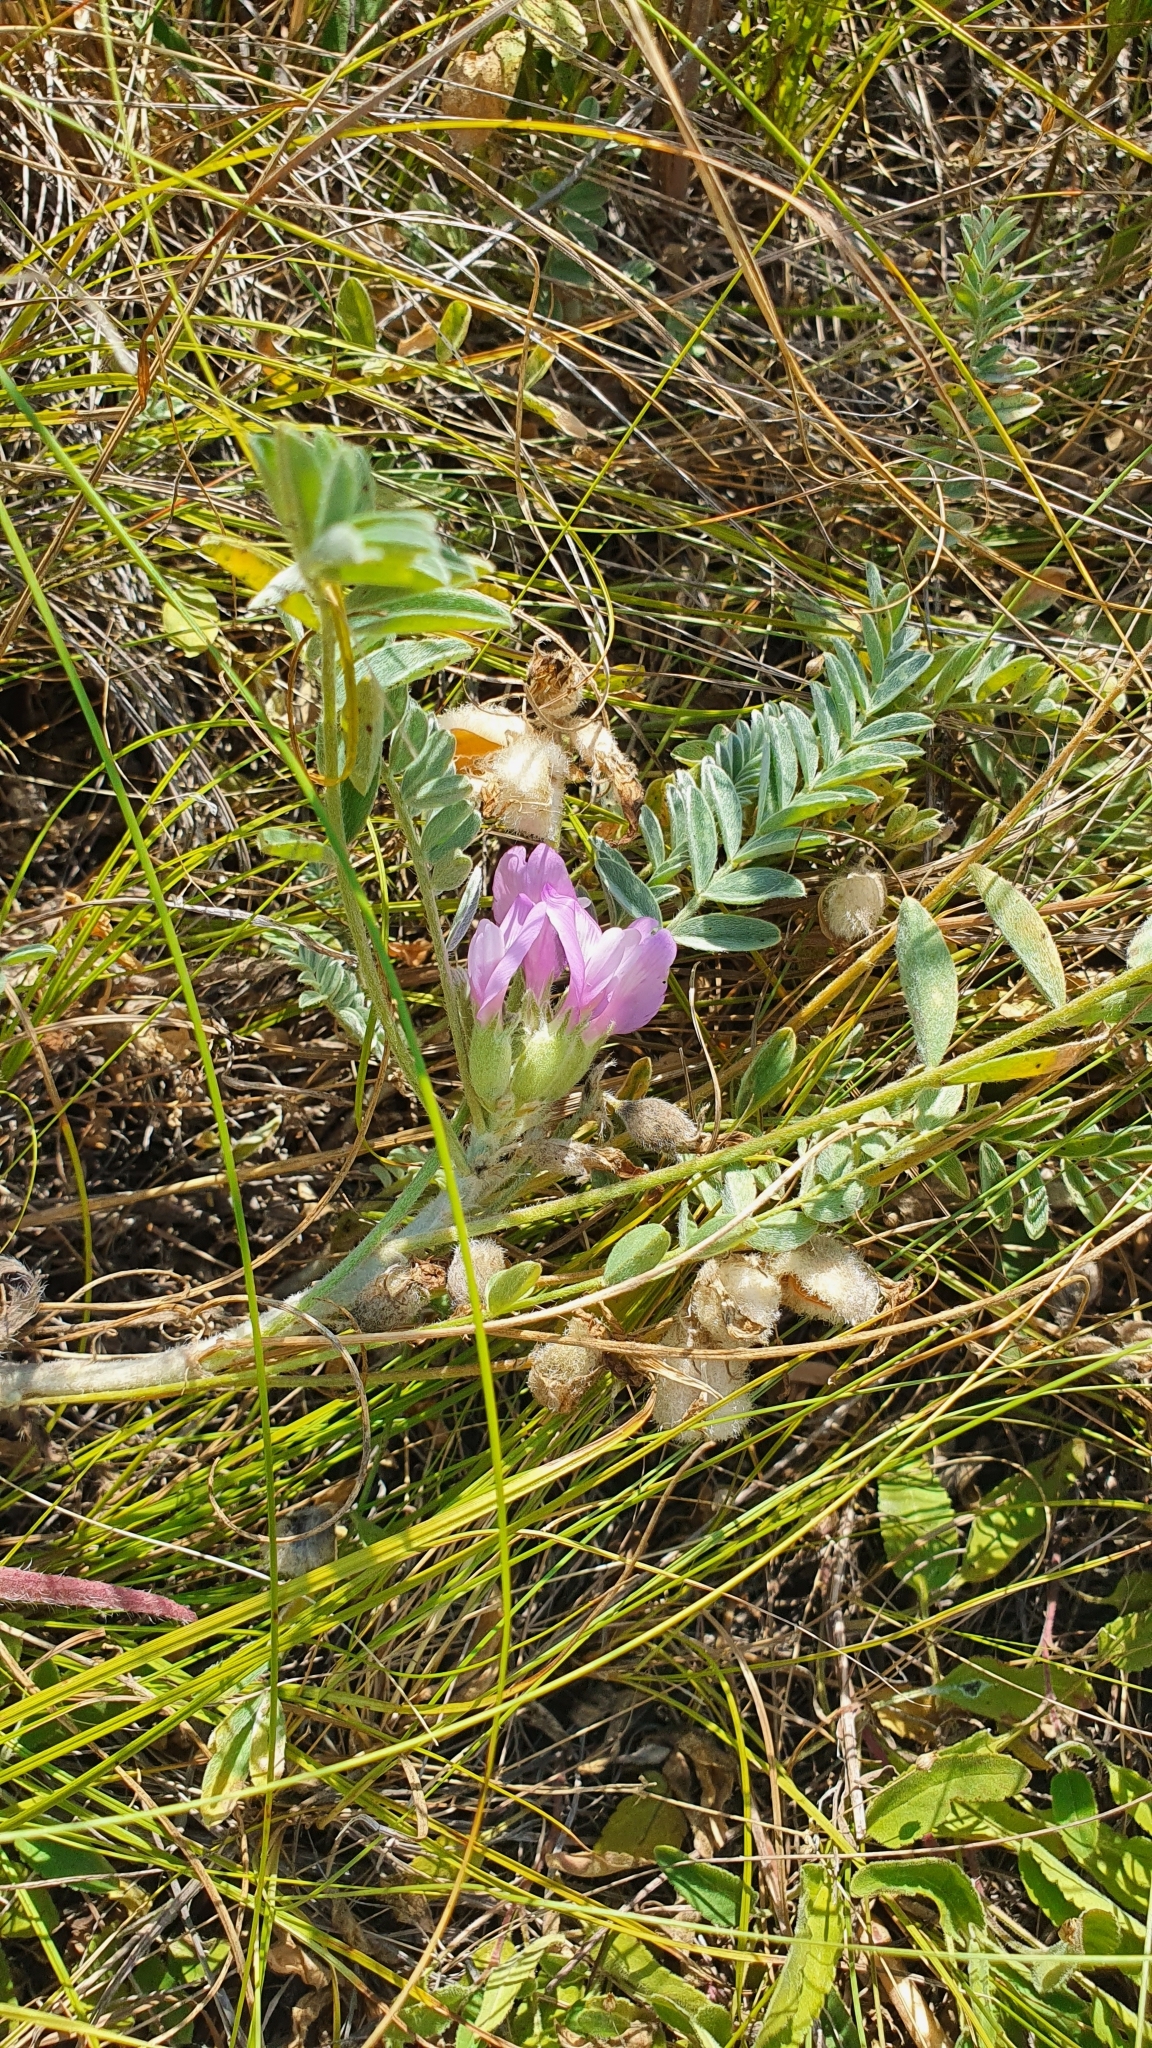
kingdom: Plantae
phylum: Tracheophyta
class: Magnoliopsida
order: Fabales
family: Fabaceae
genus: Astragalus
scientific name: Astragalus rupifragus
